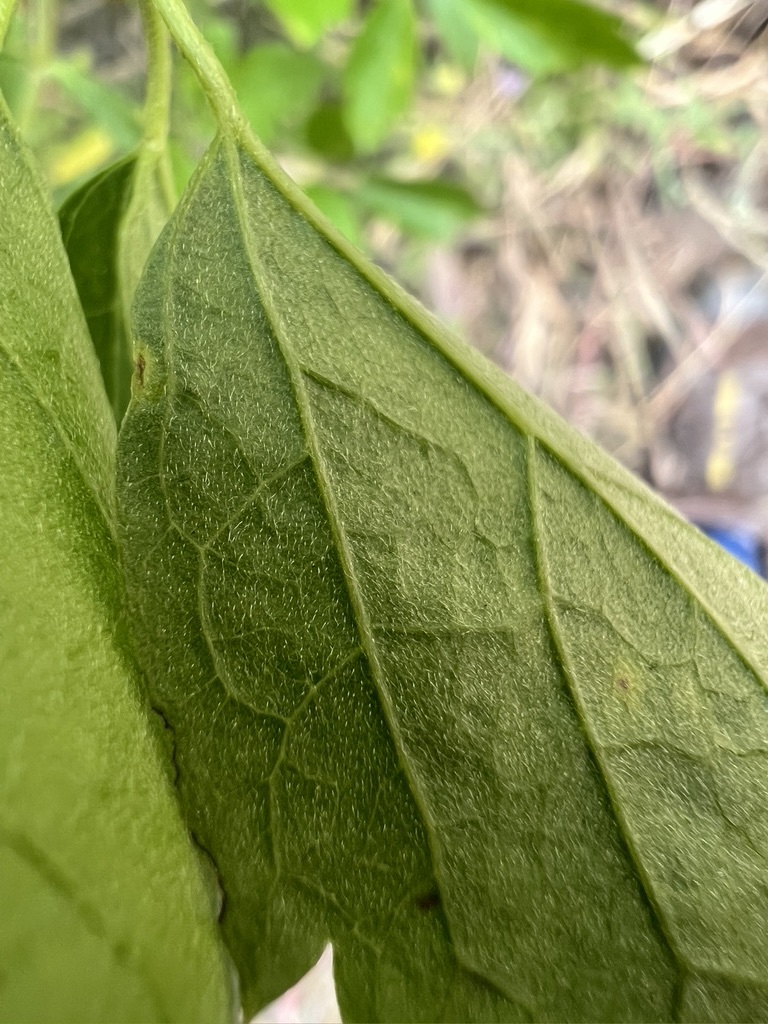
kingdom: Plantae
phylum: Tracheophyta
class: Magnoliopsida
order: Ranunculales
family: Ranunculaceae
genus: Clematis
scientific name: Clematis lasiantha
